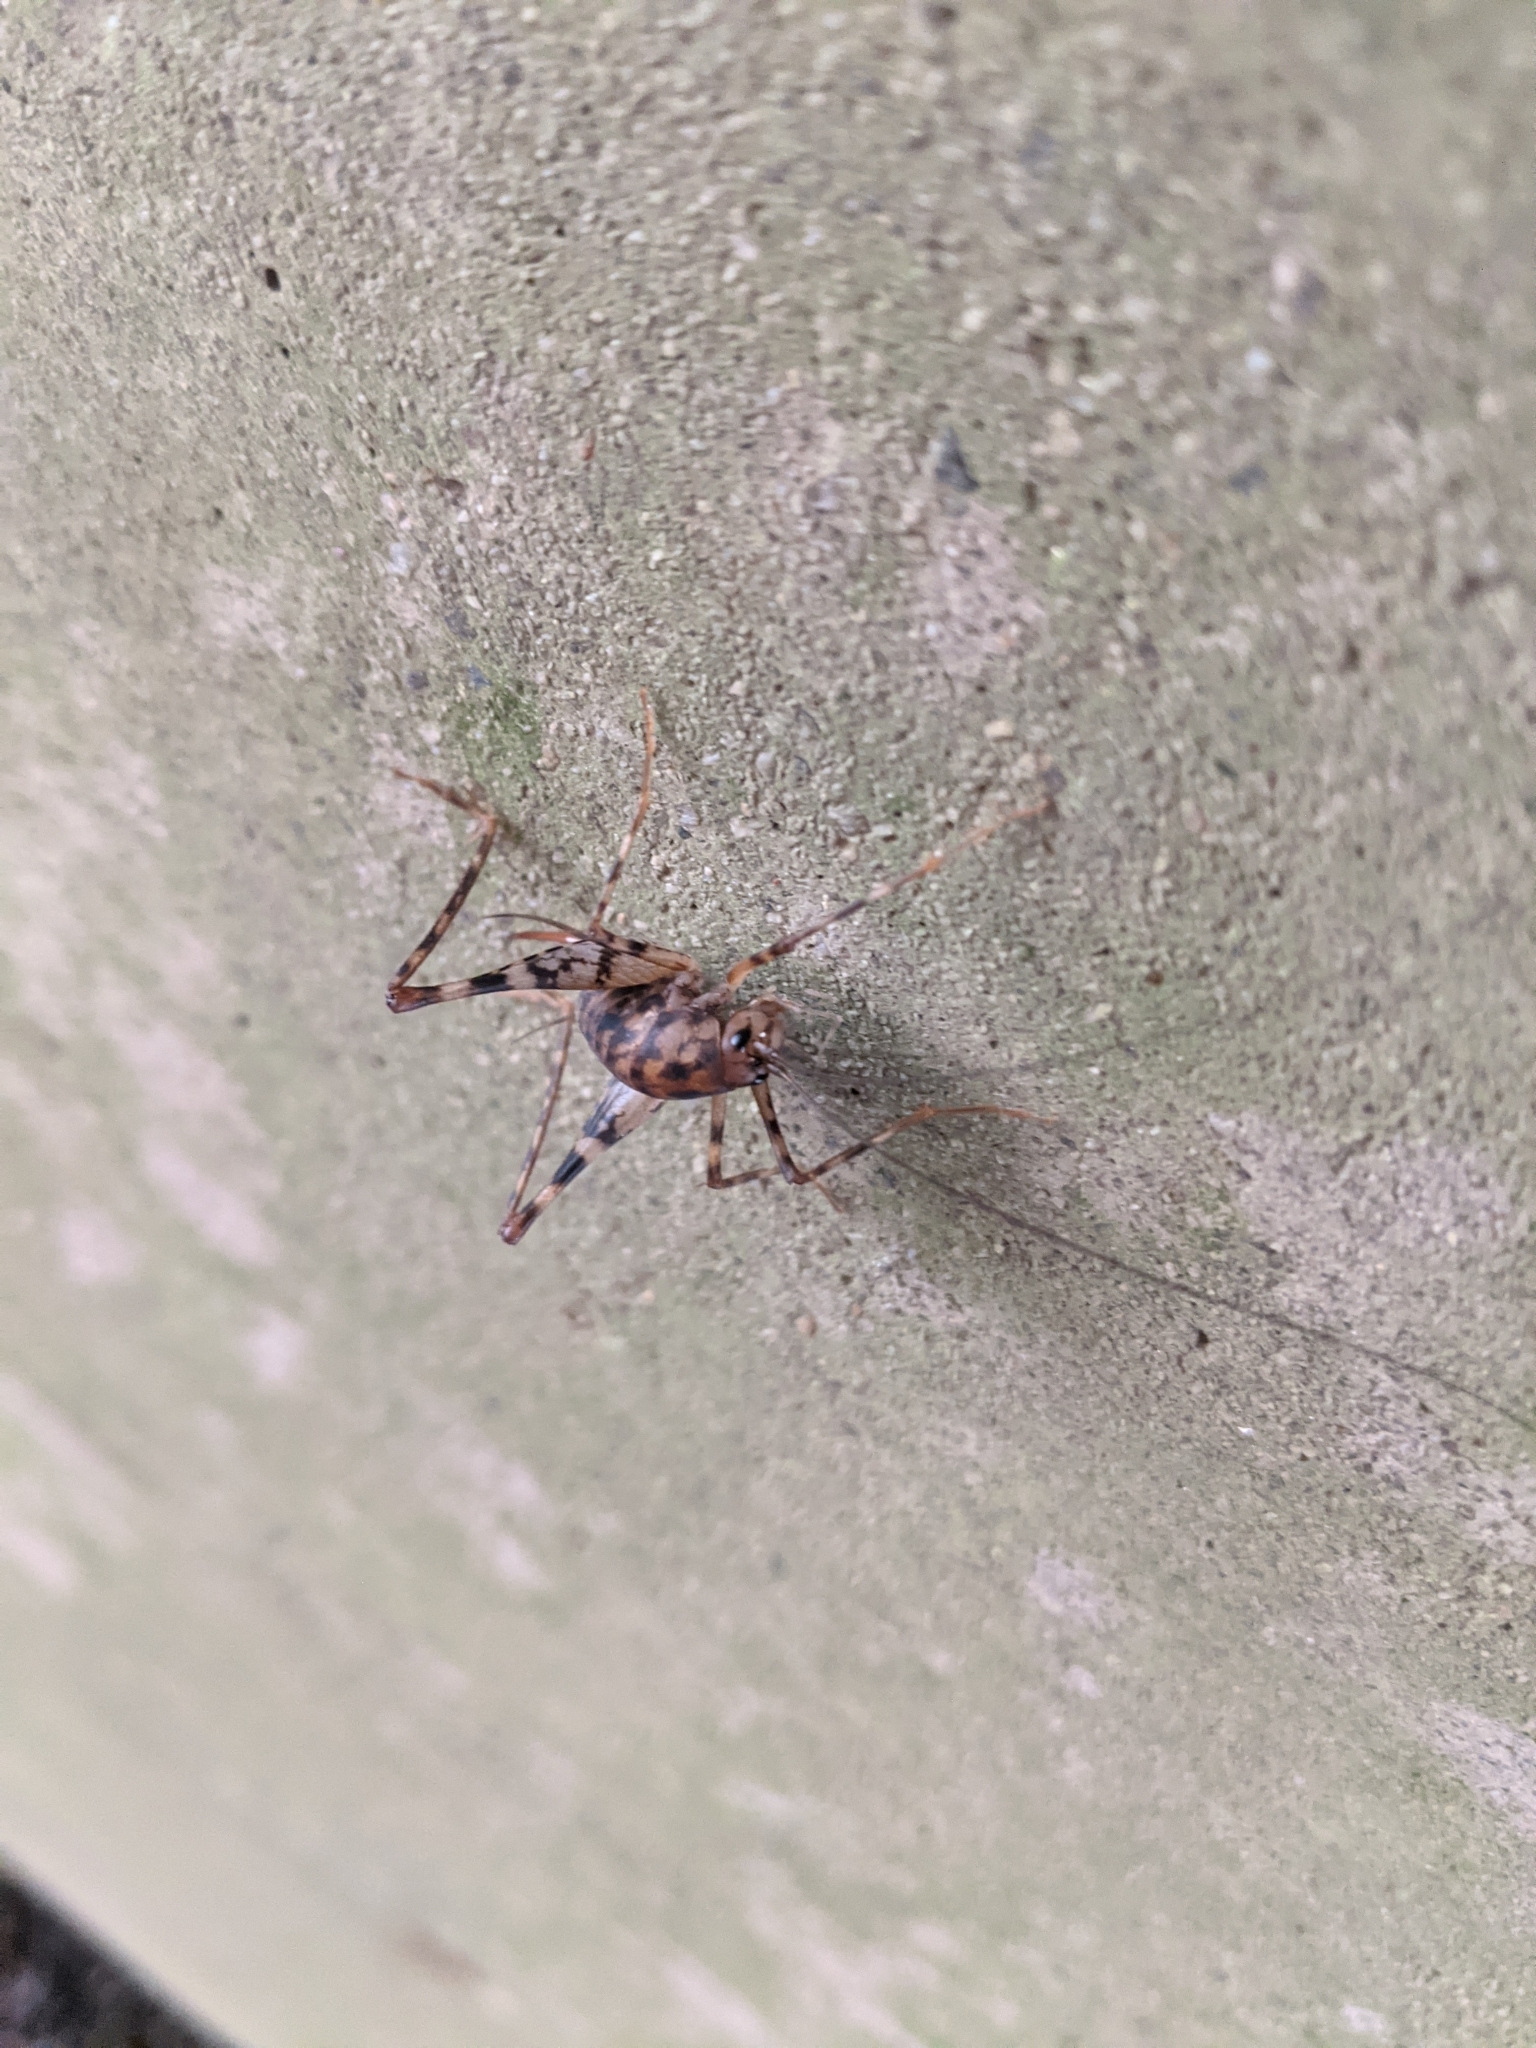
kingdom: Animalia
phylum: Arthropoda
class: Insecta
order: Orthoptera
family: Rhaphidophoridae
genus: Tachycines
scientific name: Tachycines asynamorus
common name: Greenhouse camel cricket
